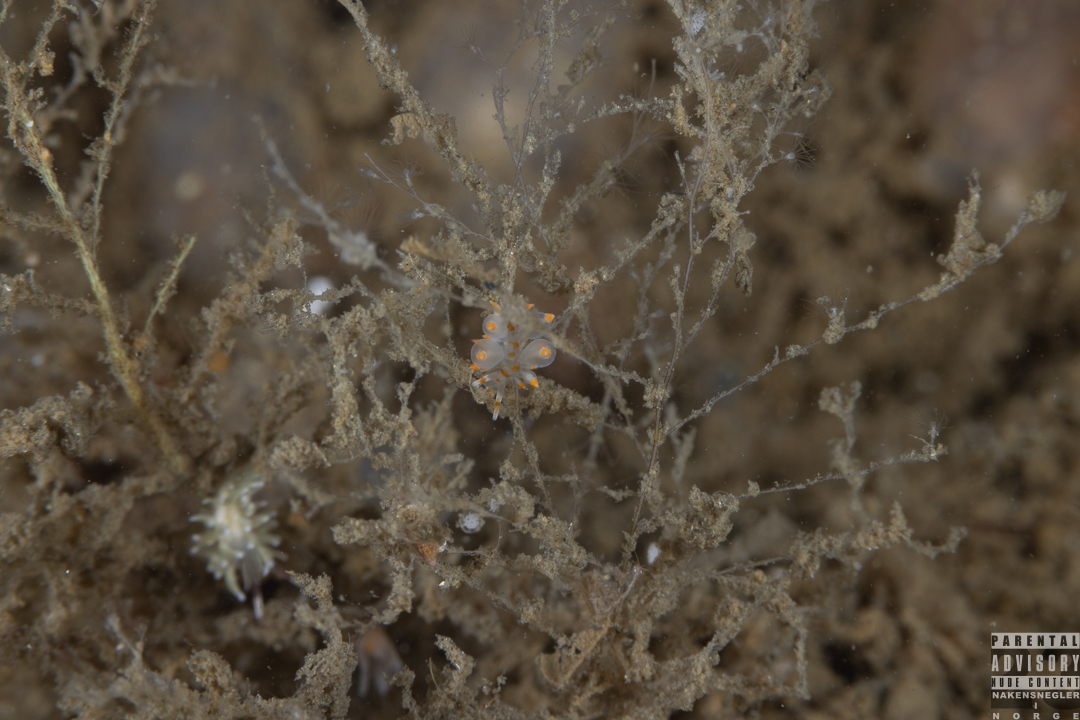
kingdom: Animalia
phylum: Mollusca
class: Gastropoda
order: Nudibranchia
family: Eubranchidae
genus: Amphorina
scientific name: Amphorina farrani
